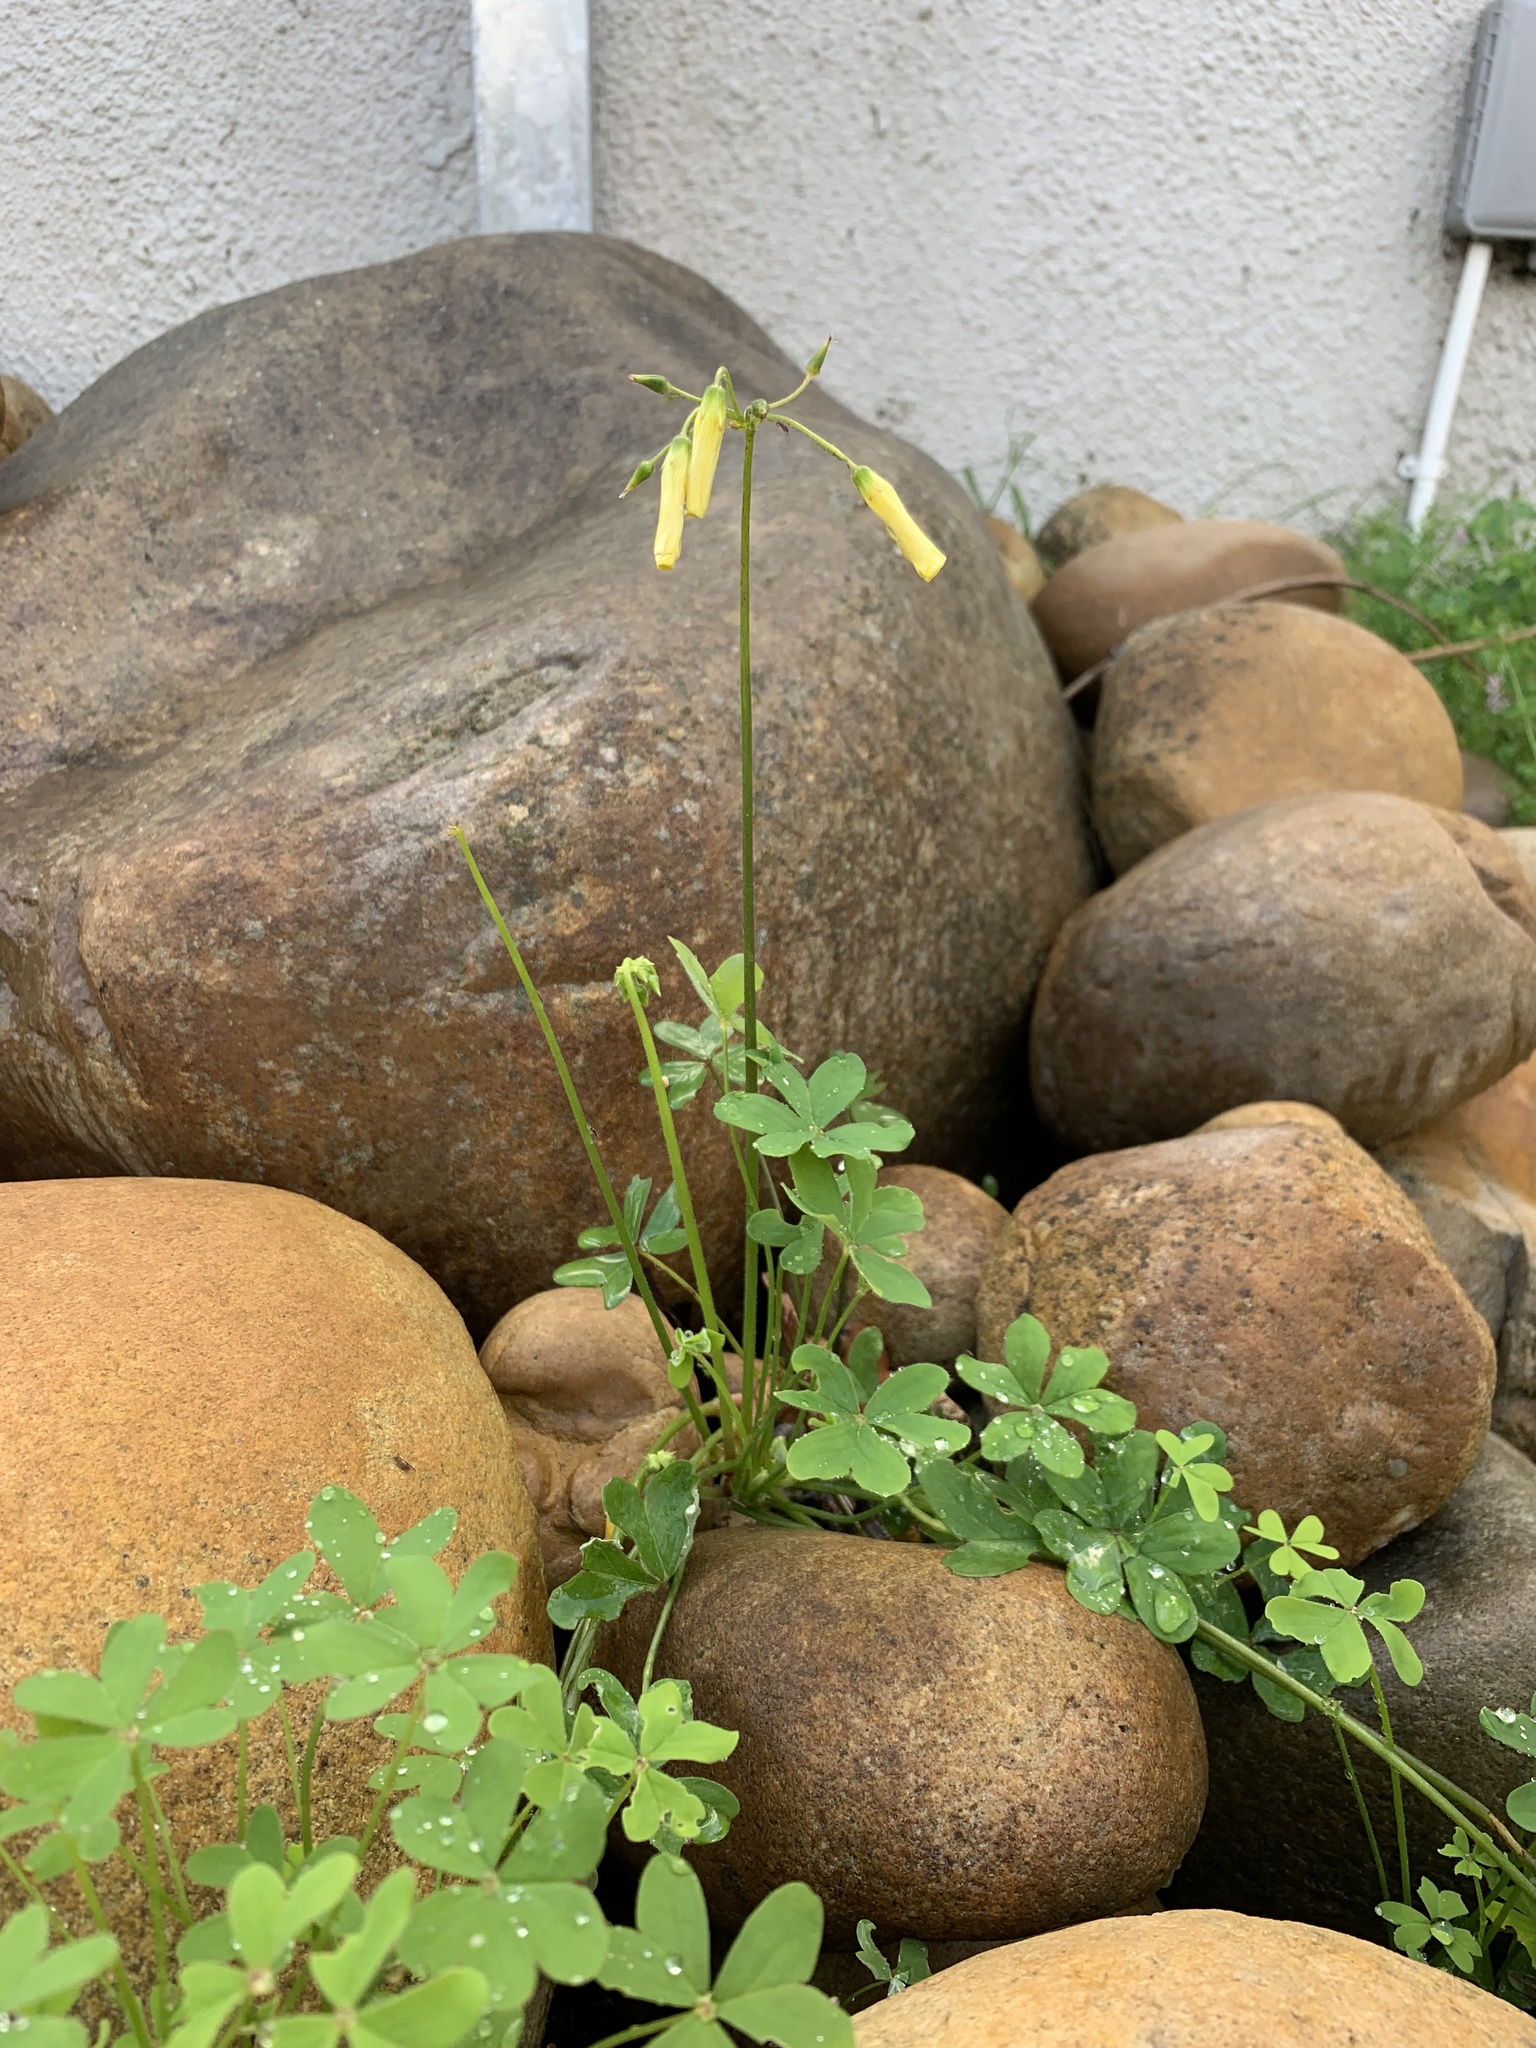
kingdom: Plantae
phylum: Tracheophyta
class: Magnoliopsida
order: Oxalidales
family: Oxalidaceae
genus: Oxalis
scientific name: Oxalis pes-caprae
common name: Bermuda-buttercup
